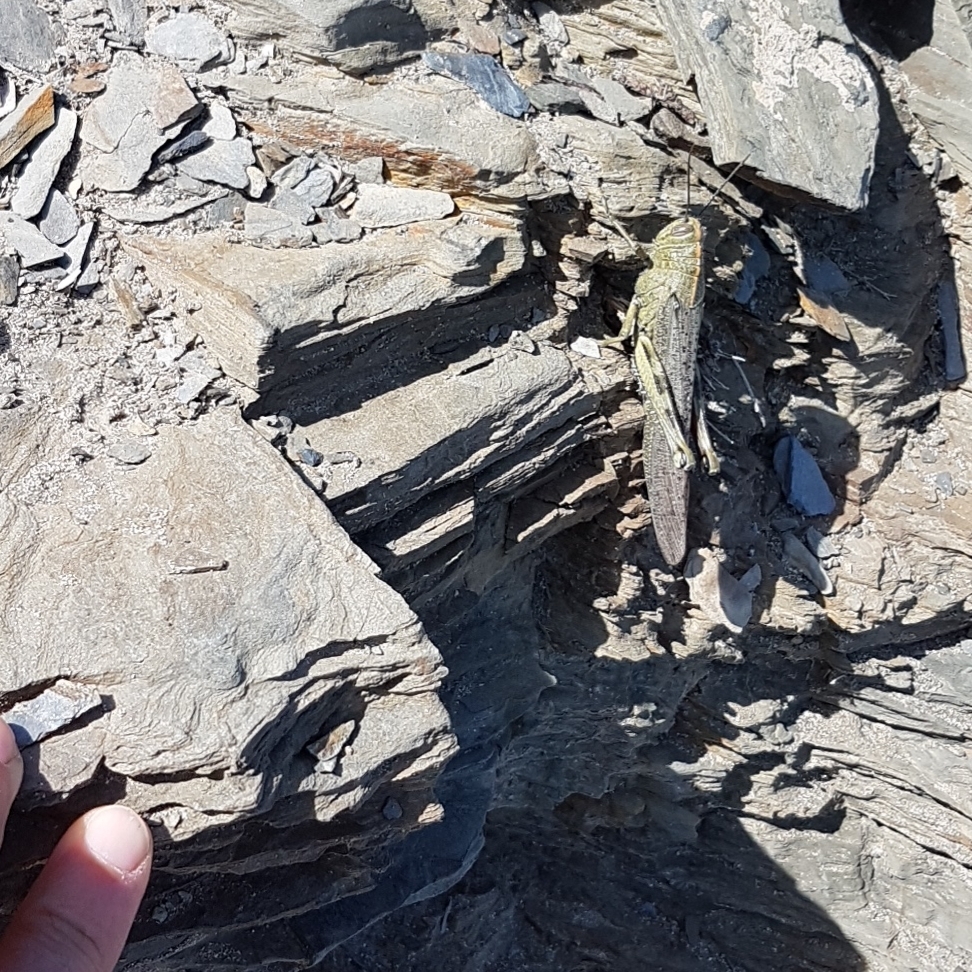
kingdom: Animalia
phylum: Arthropoda
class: Insecta
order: Orthoptera
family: Acrididae
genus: Anacridium
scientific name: Anacridium aegyptium
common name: Egyptian grasshopper
